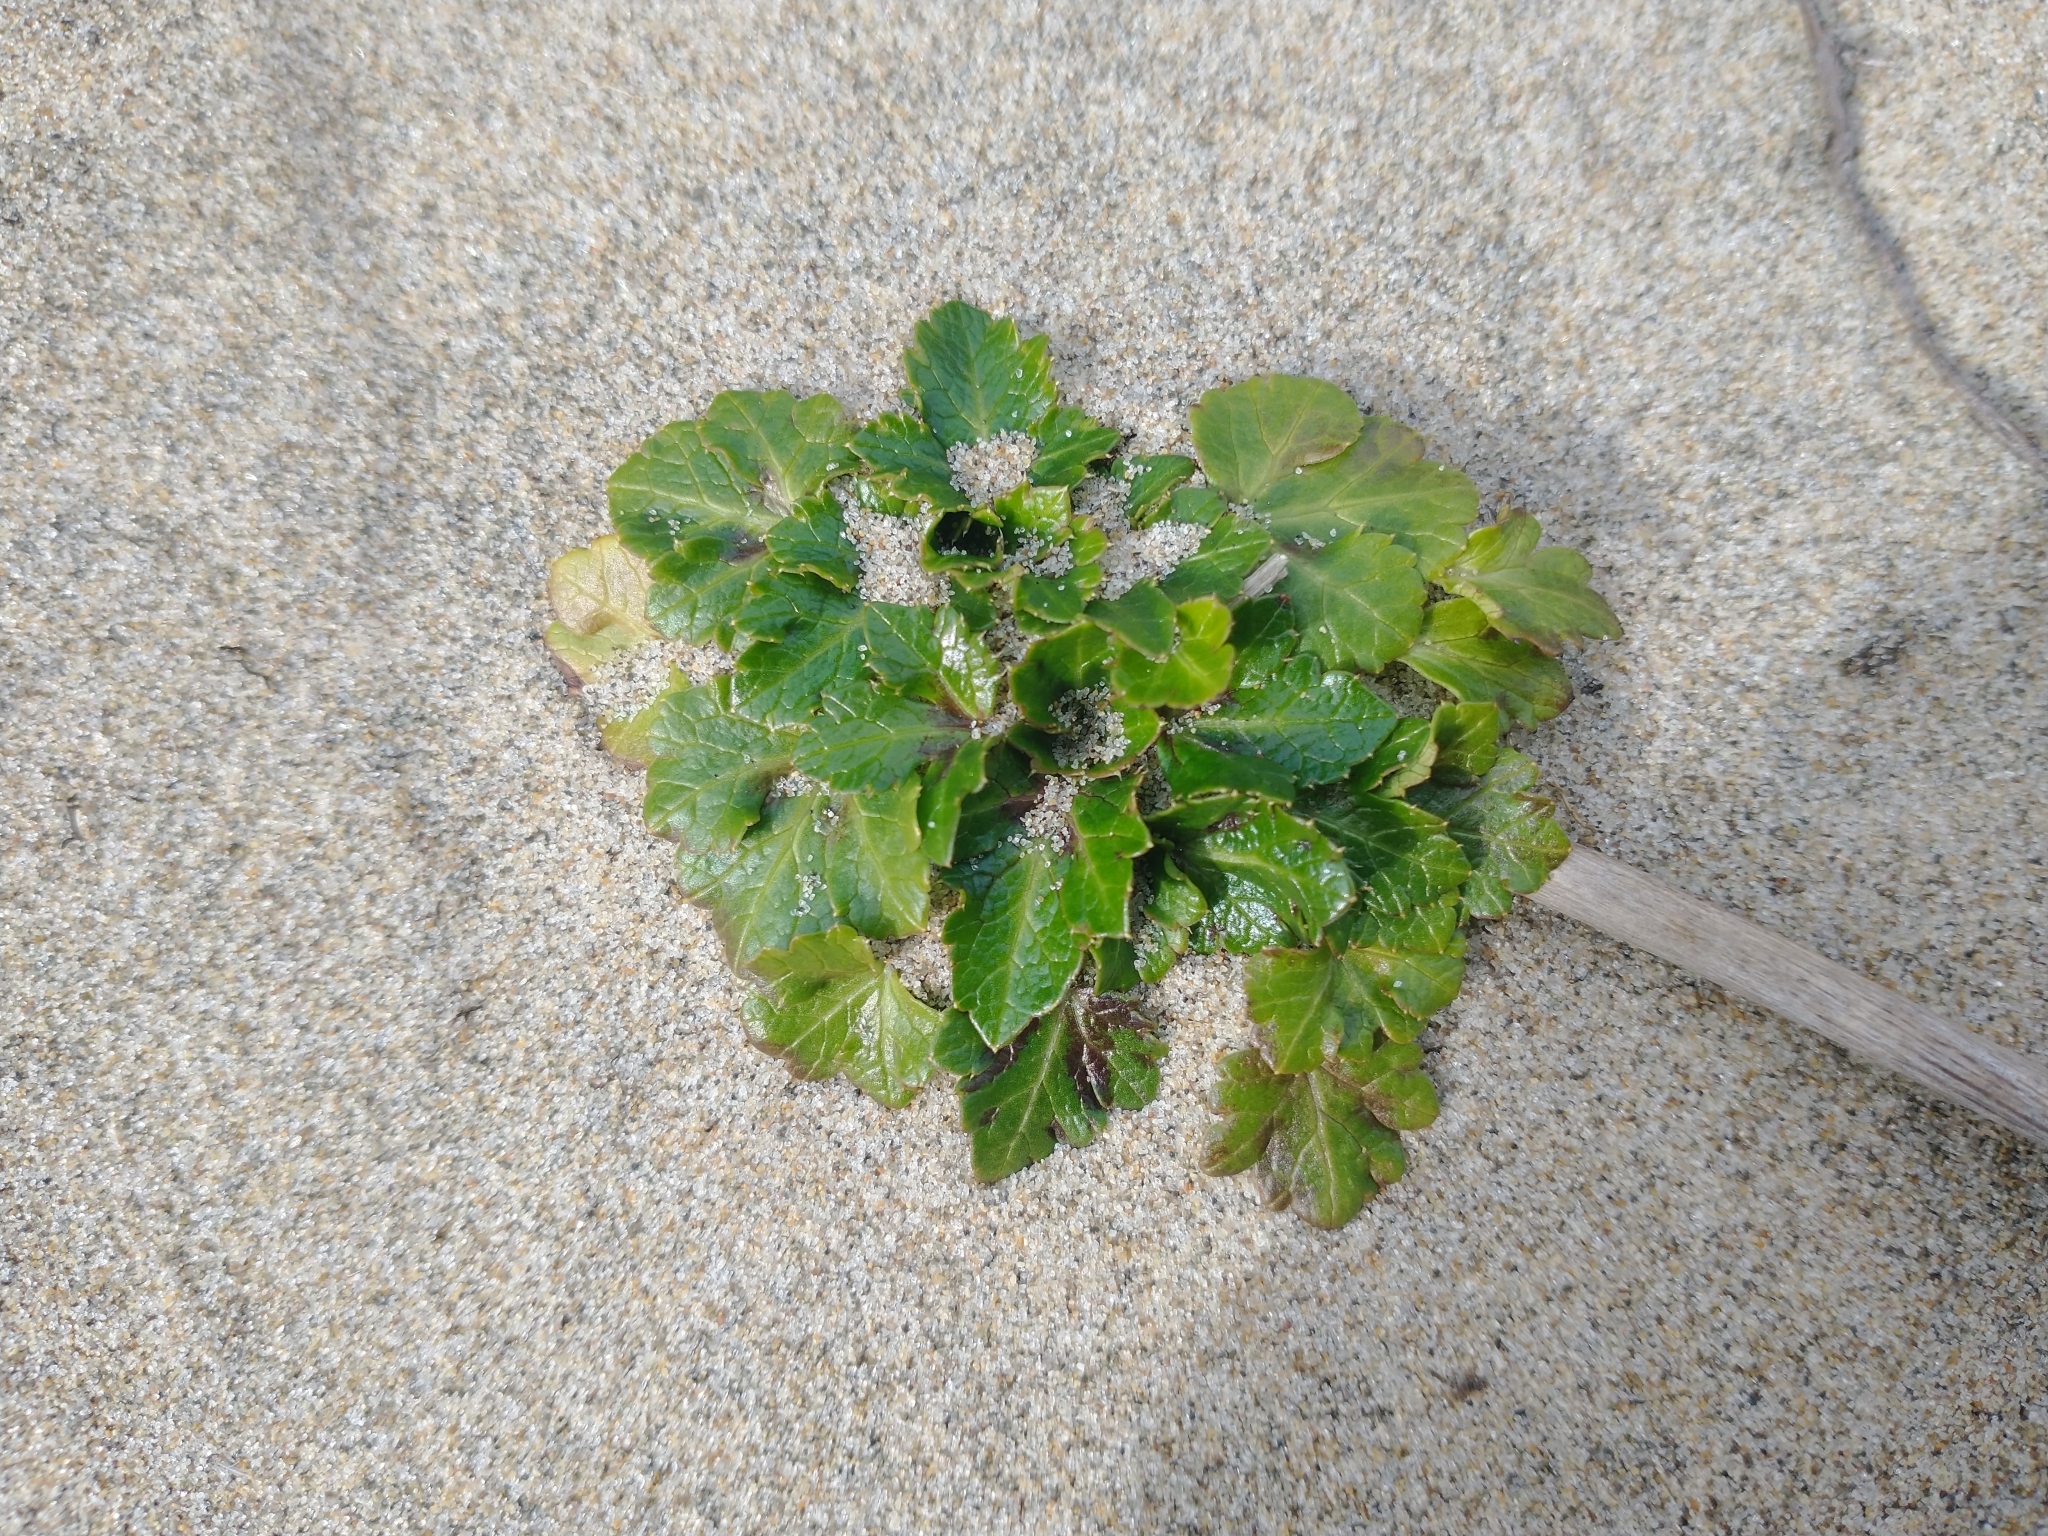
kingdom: Plantae
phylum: Tracheophyta
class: Magnoliopsida
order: Apiales
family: Apiaceae
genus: Glehnia
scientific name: Glehnia littoralis
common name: Beach silvertop
